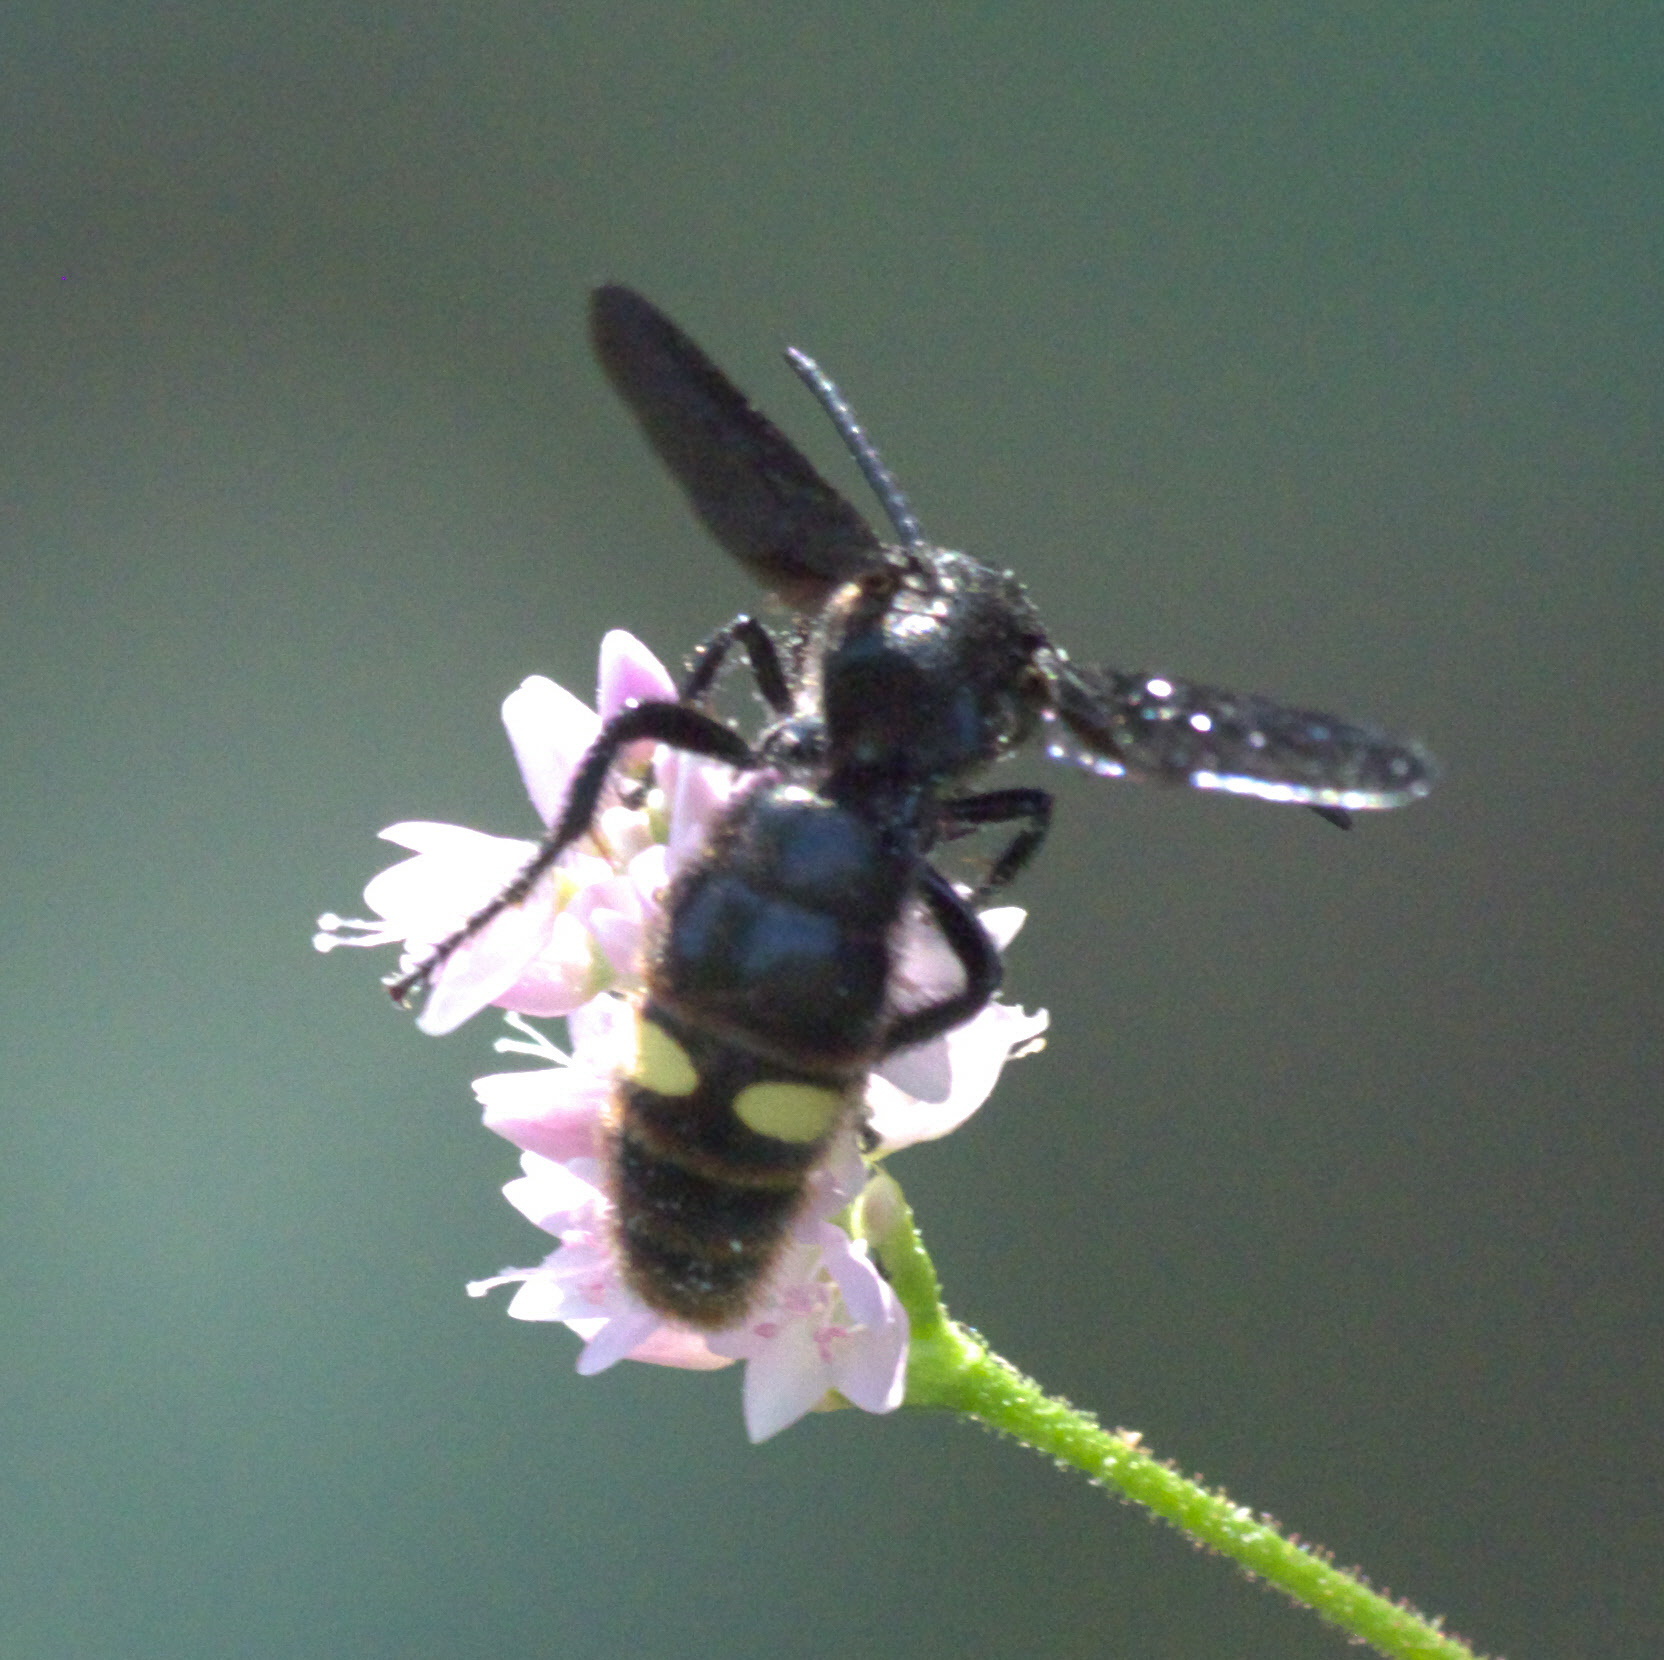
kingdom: Animalia
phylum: Arthropoda
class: Insecta
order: Hymenoptera
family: Scoliidae
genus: Scolia
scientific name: Scolia dubia
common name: Blue-winged scoliid wasp
